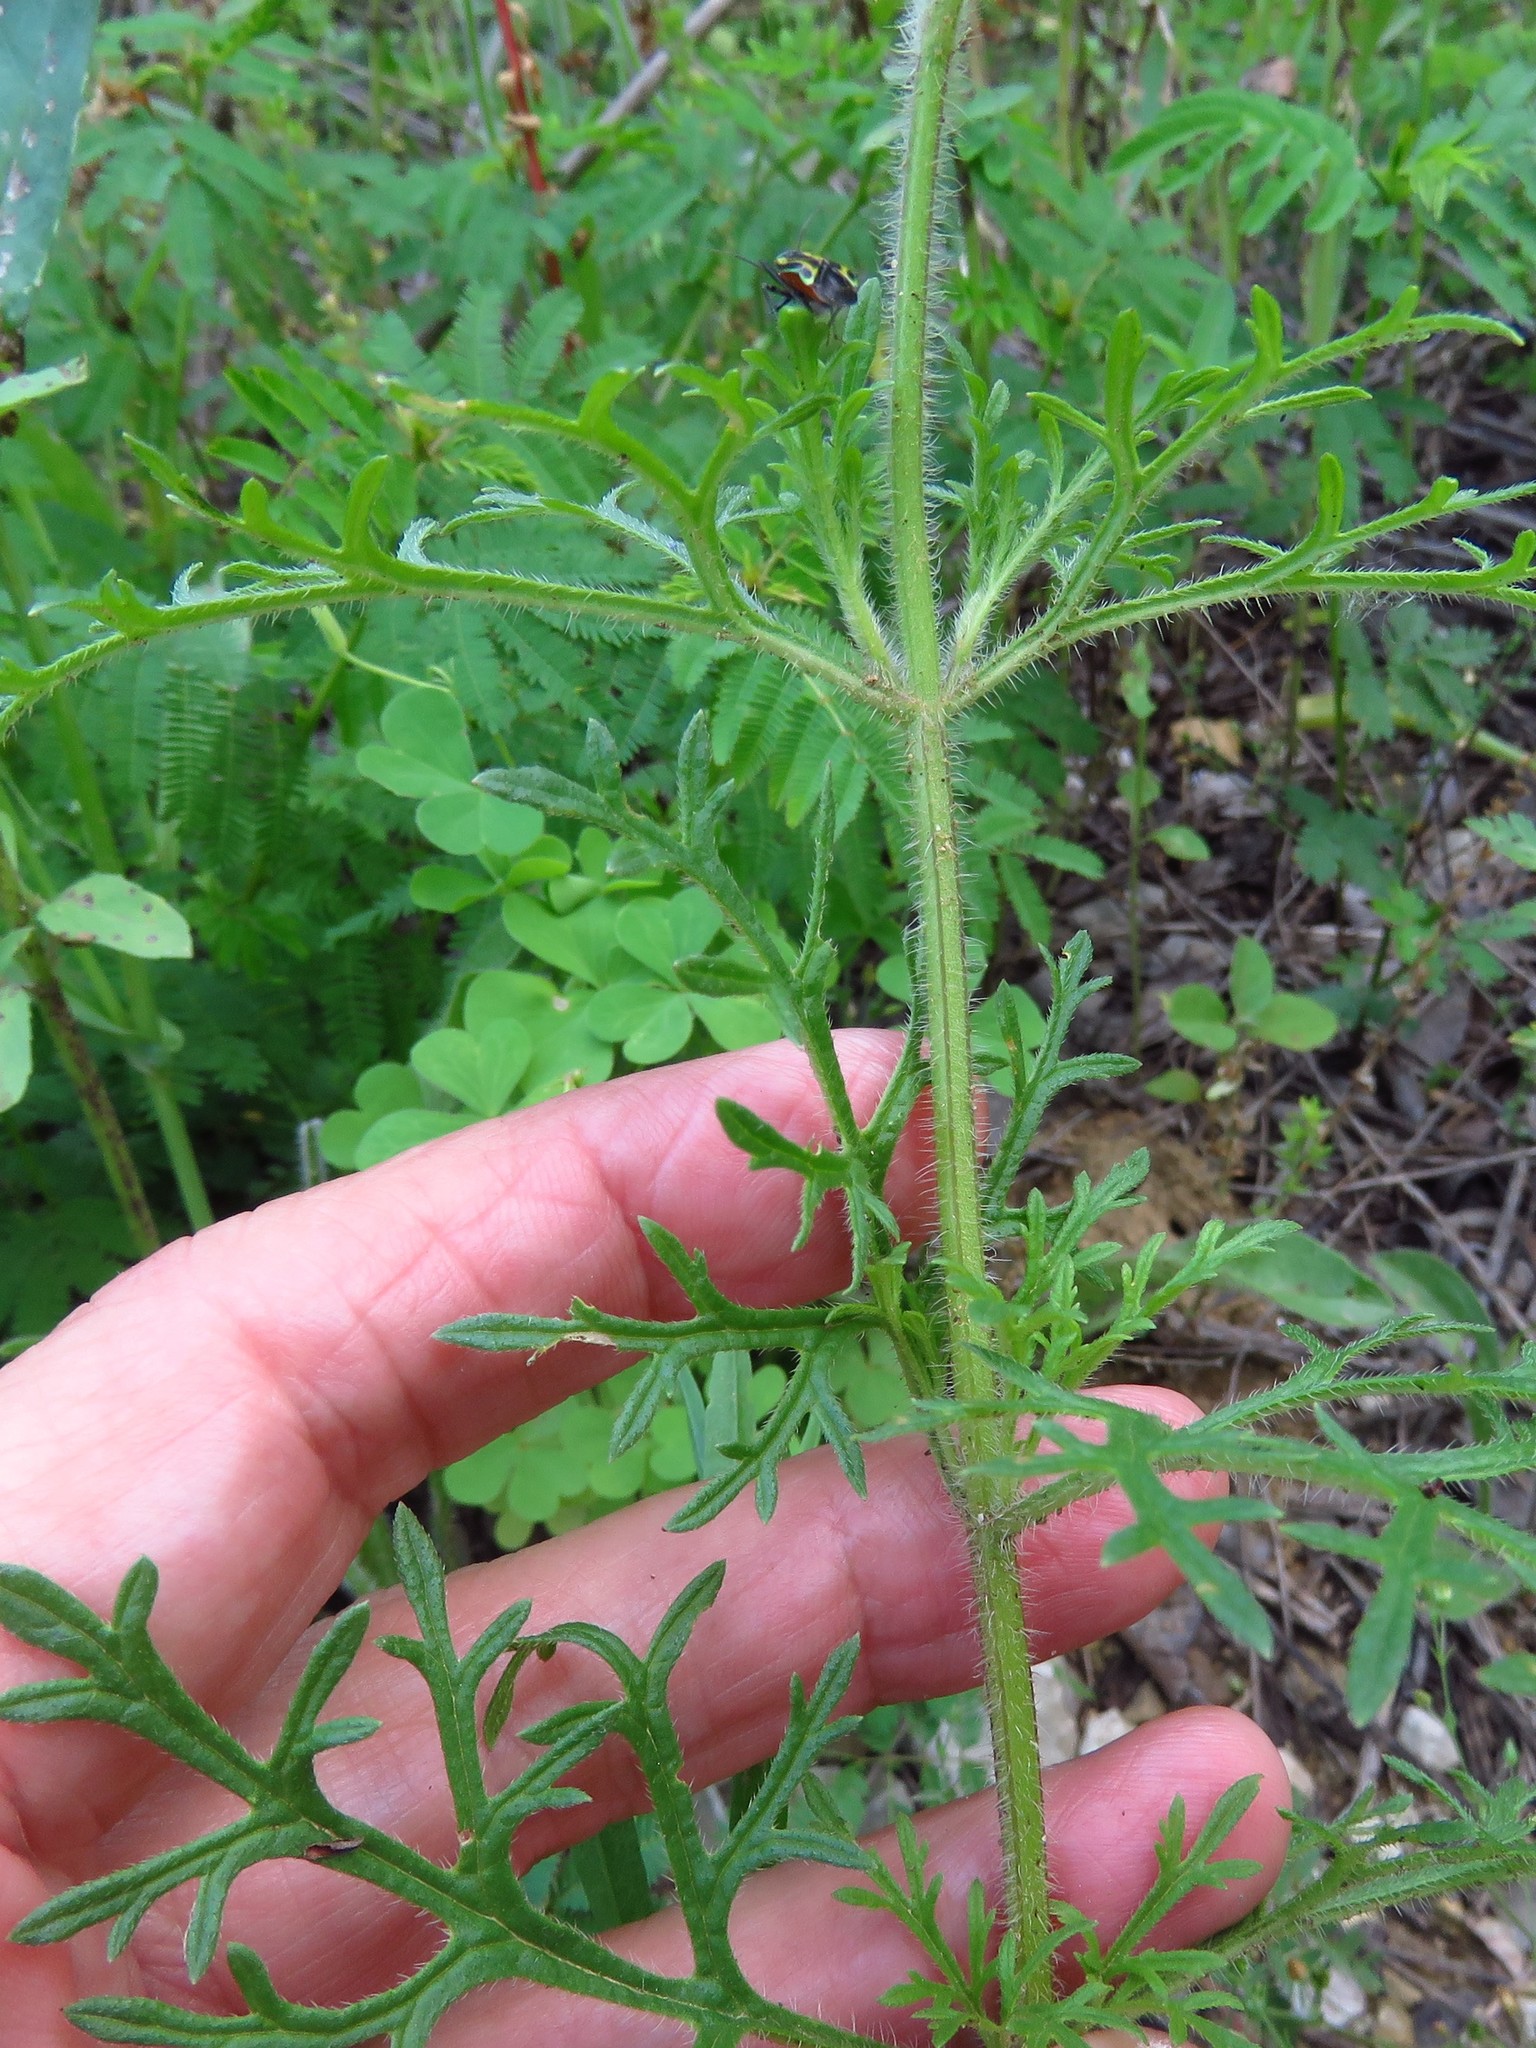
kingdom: Plantae
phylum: Tracheophyta
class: Magnoliopsida
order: Lamiales
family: Verbenaceae
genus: Verbena
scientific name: Verbena bipinnatifida
